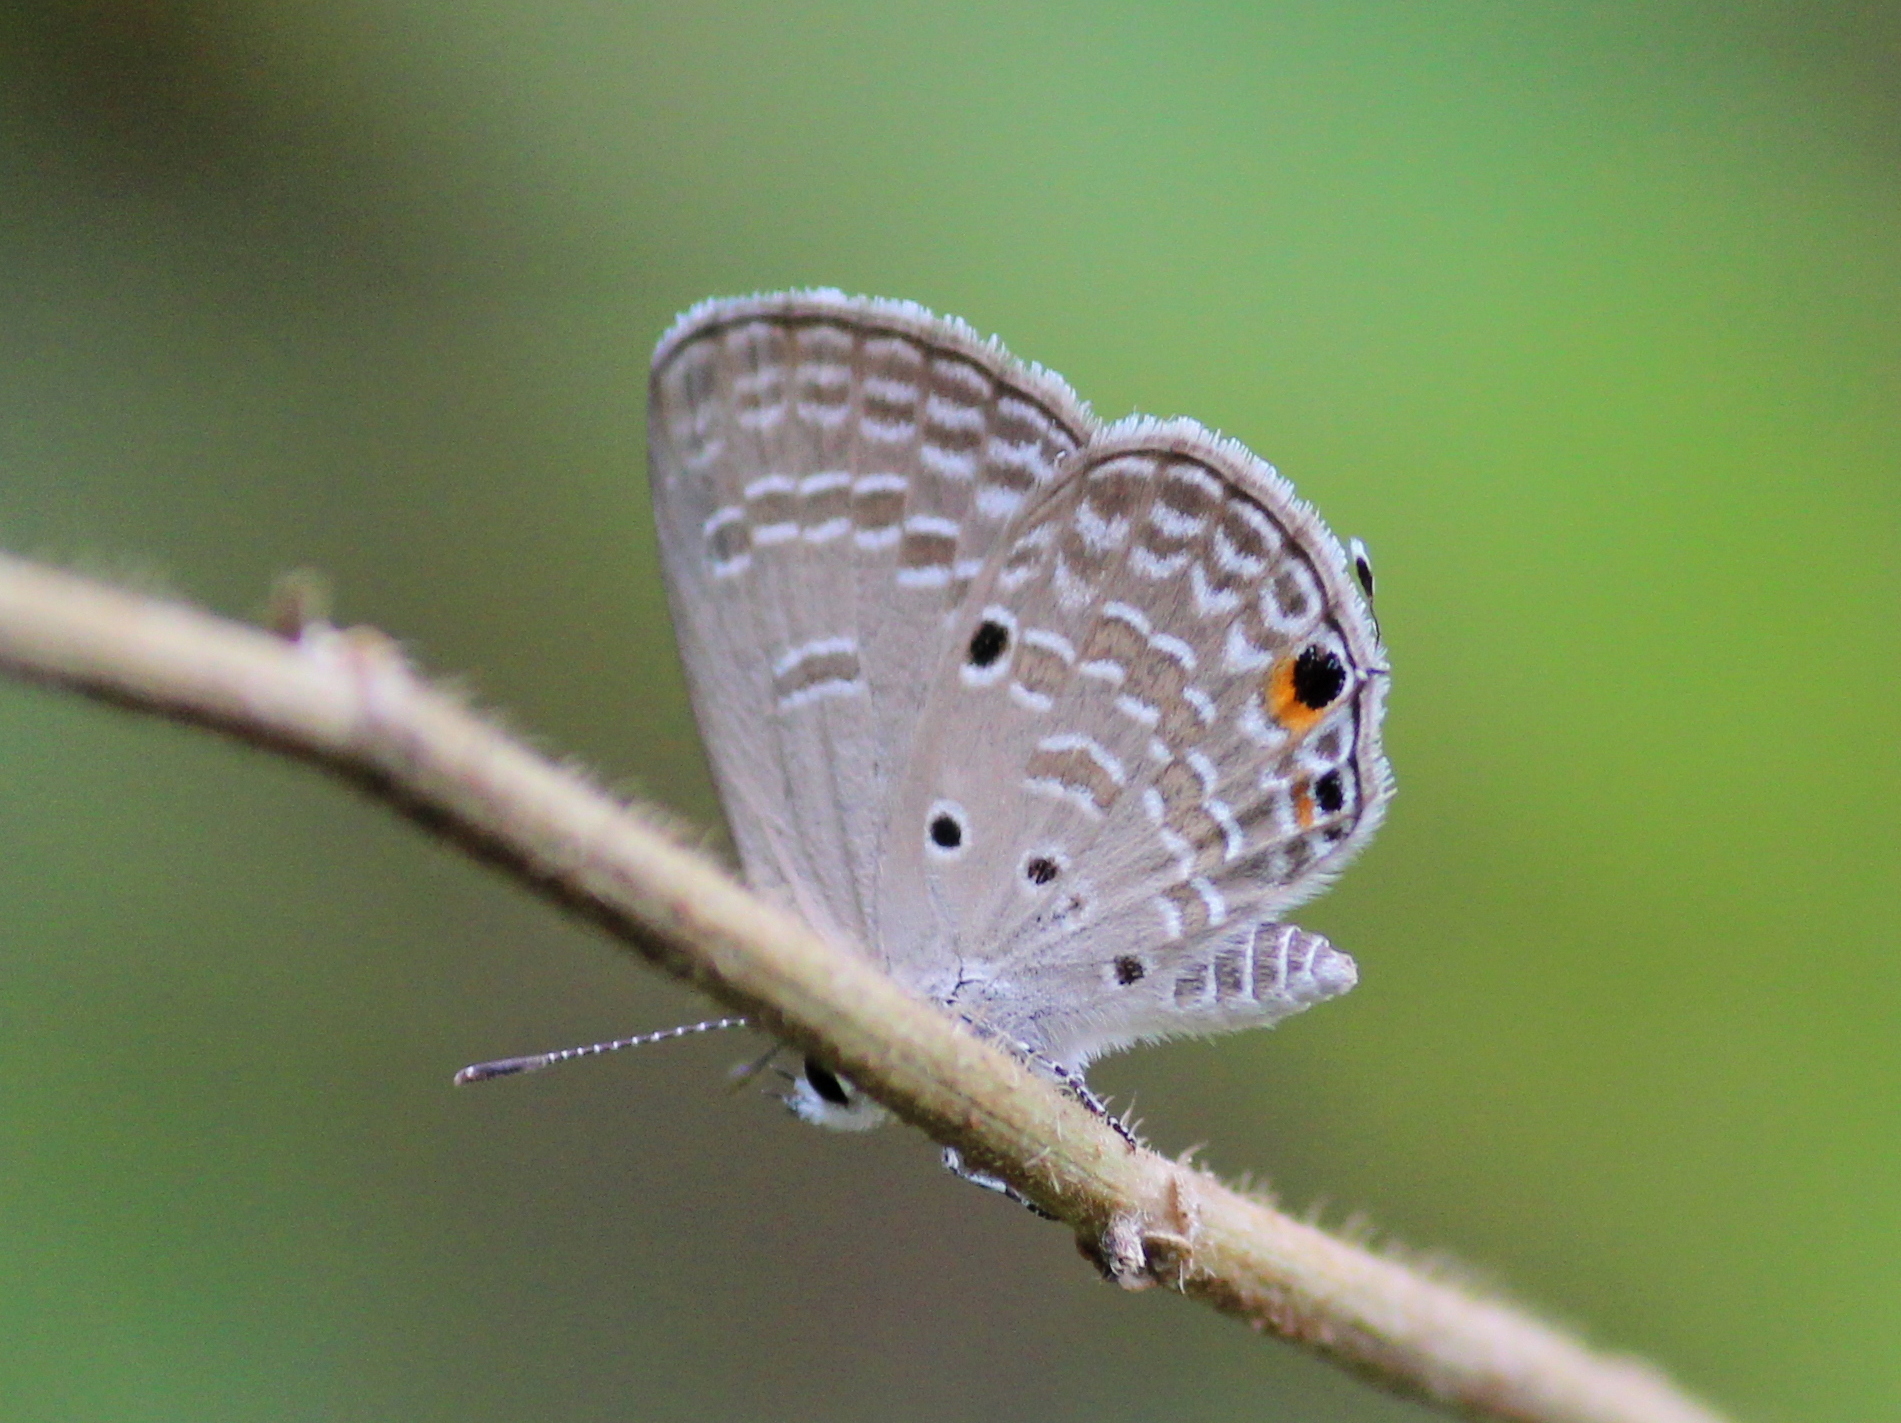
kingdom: Animalia
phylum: Arthropoda
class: Insecta
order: Lepidoptera
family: Lycaenidae
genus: Luthrodes
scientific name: Luthrodes pandava
